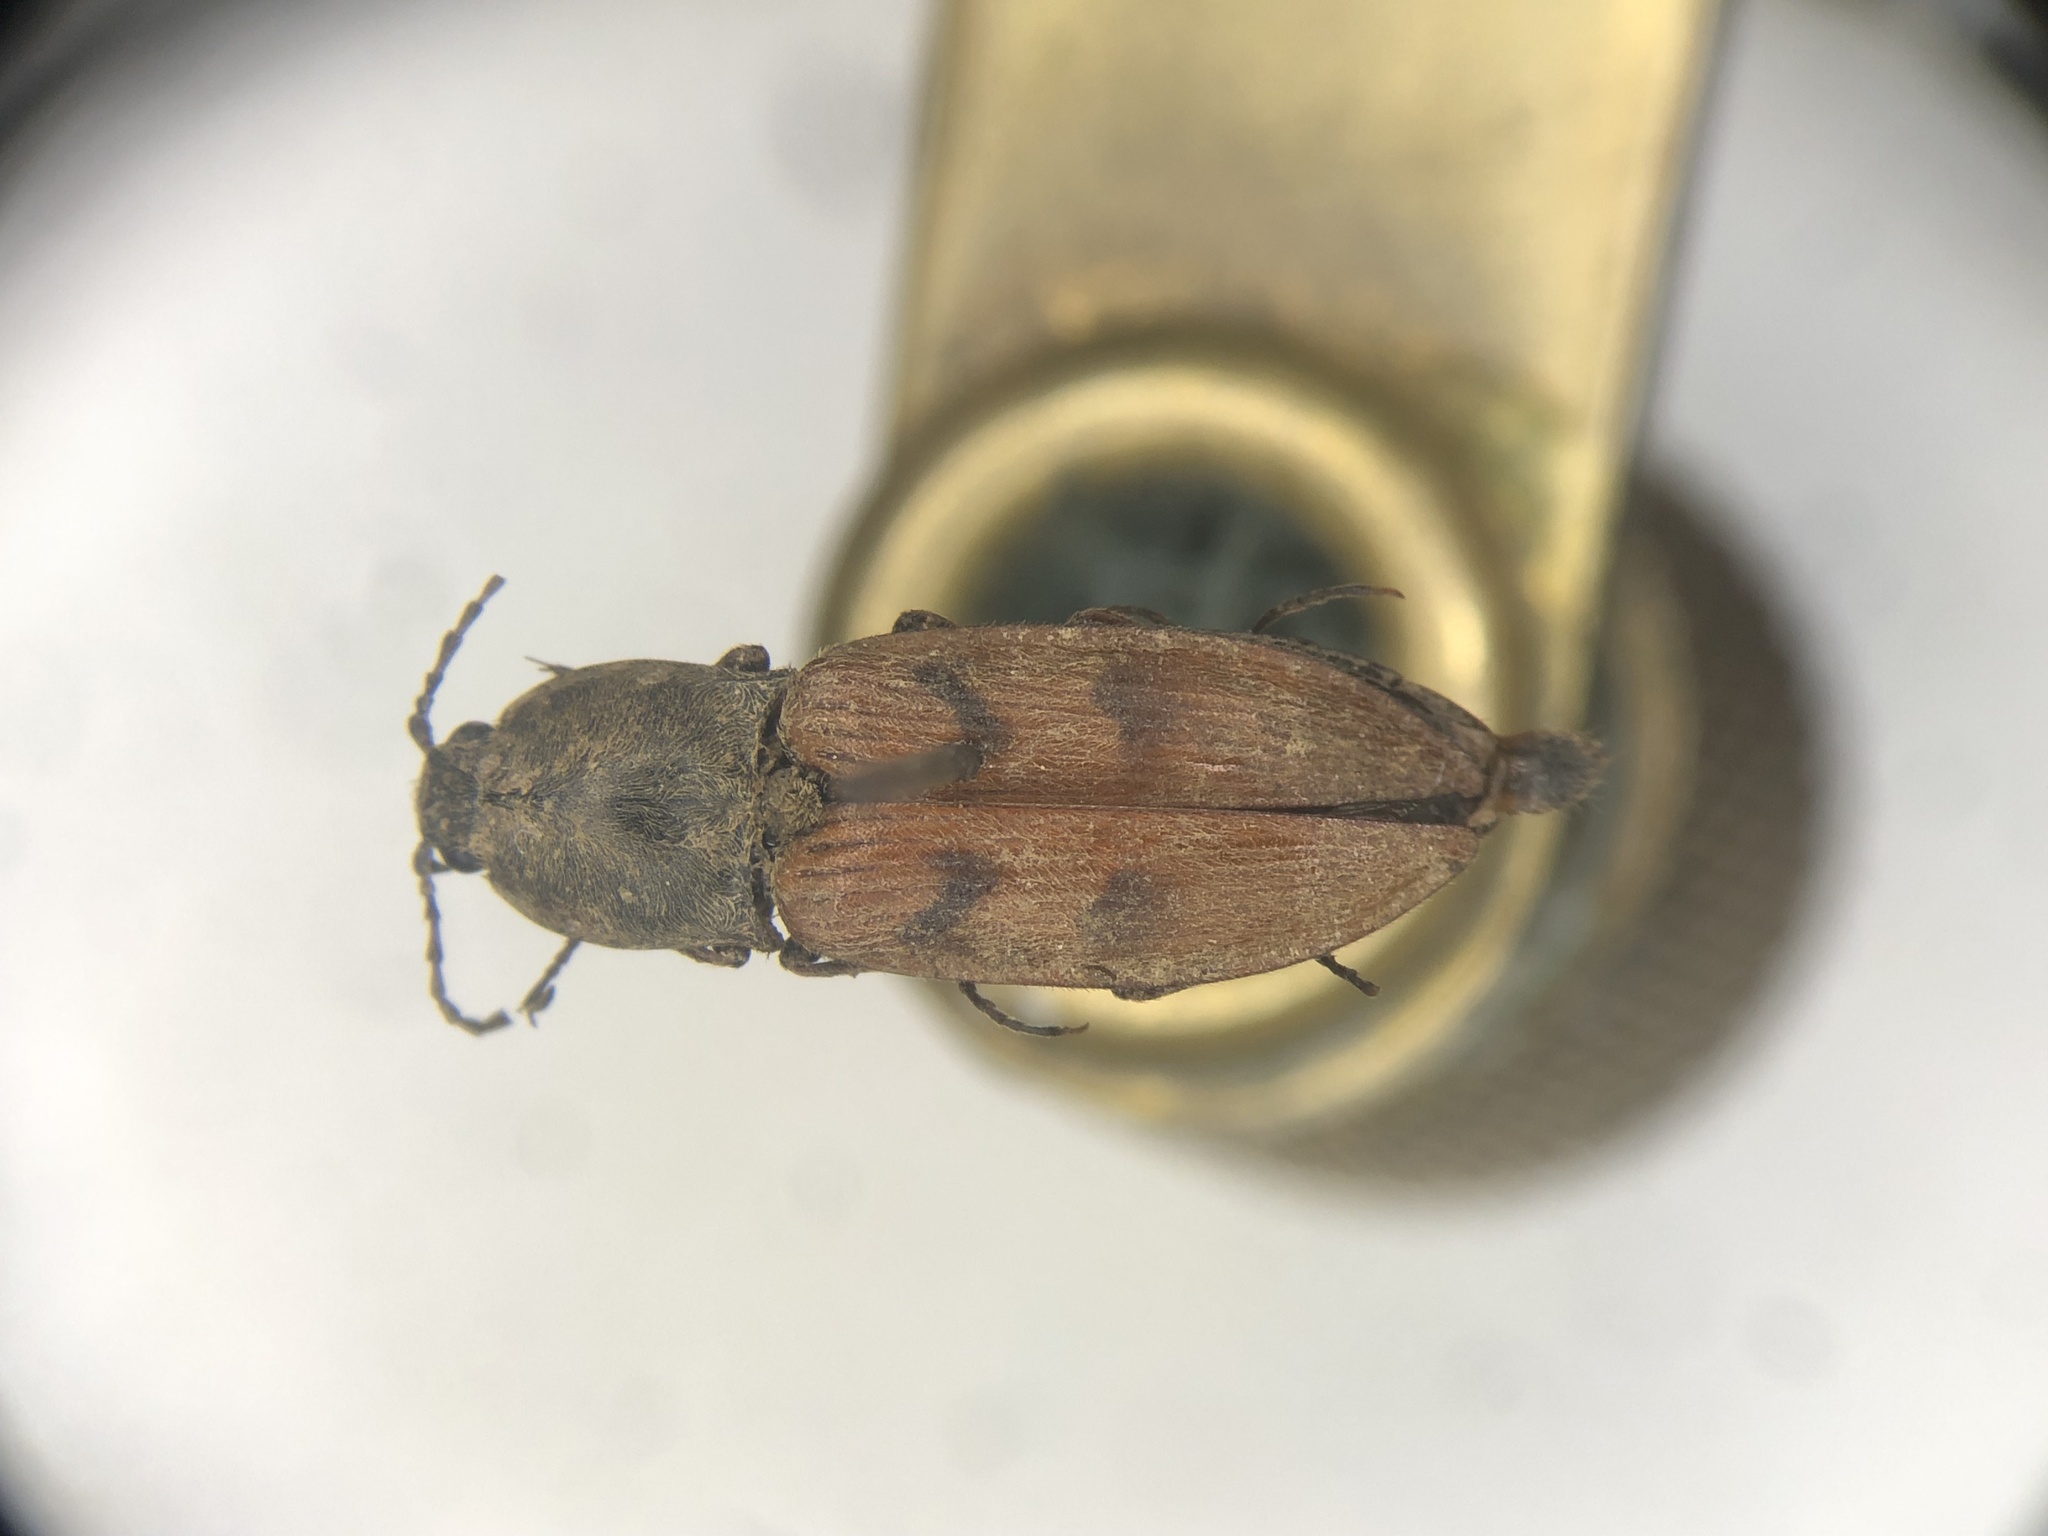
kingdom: Animalia
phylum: Arthropoda
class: Insecta
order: Coleoptera
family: Elateridae
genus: Stropenron
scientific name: Stropenron nigricollis
